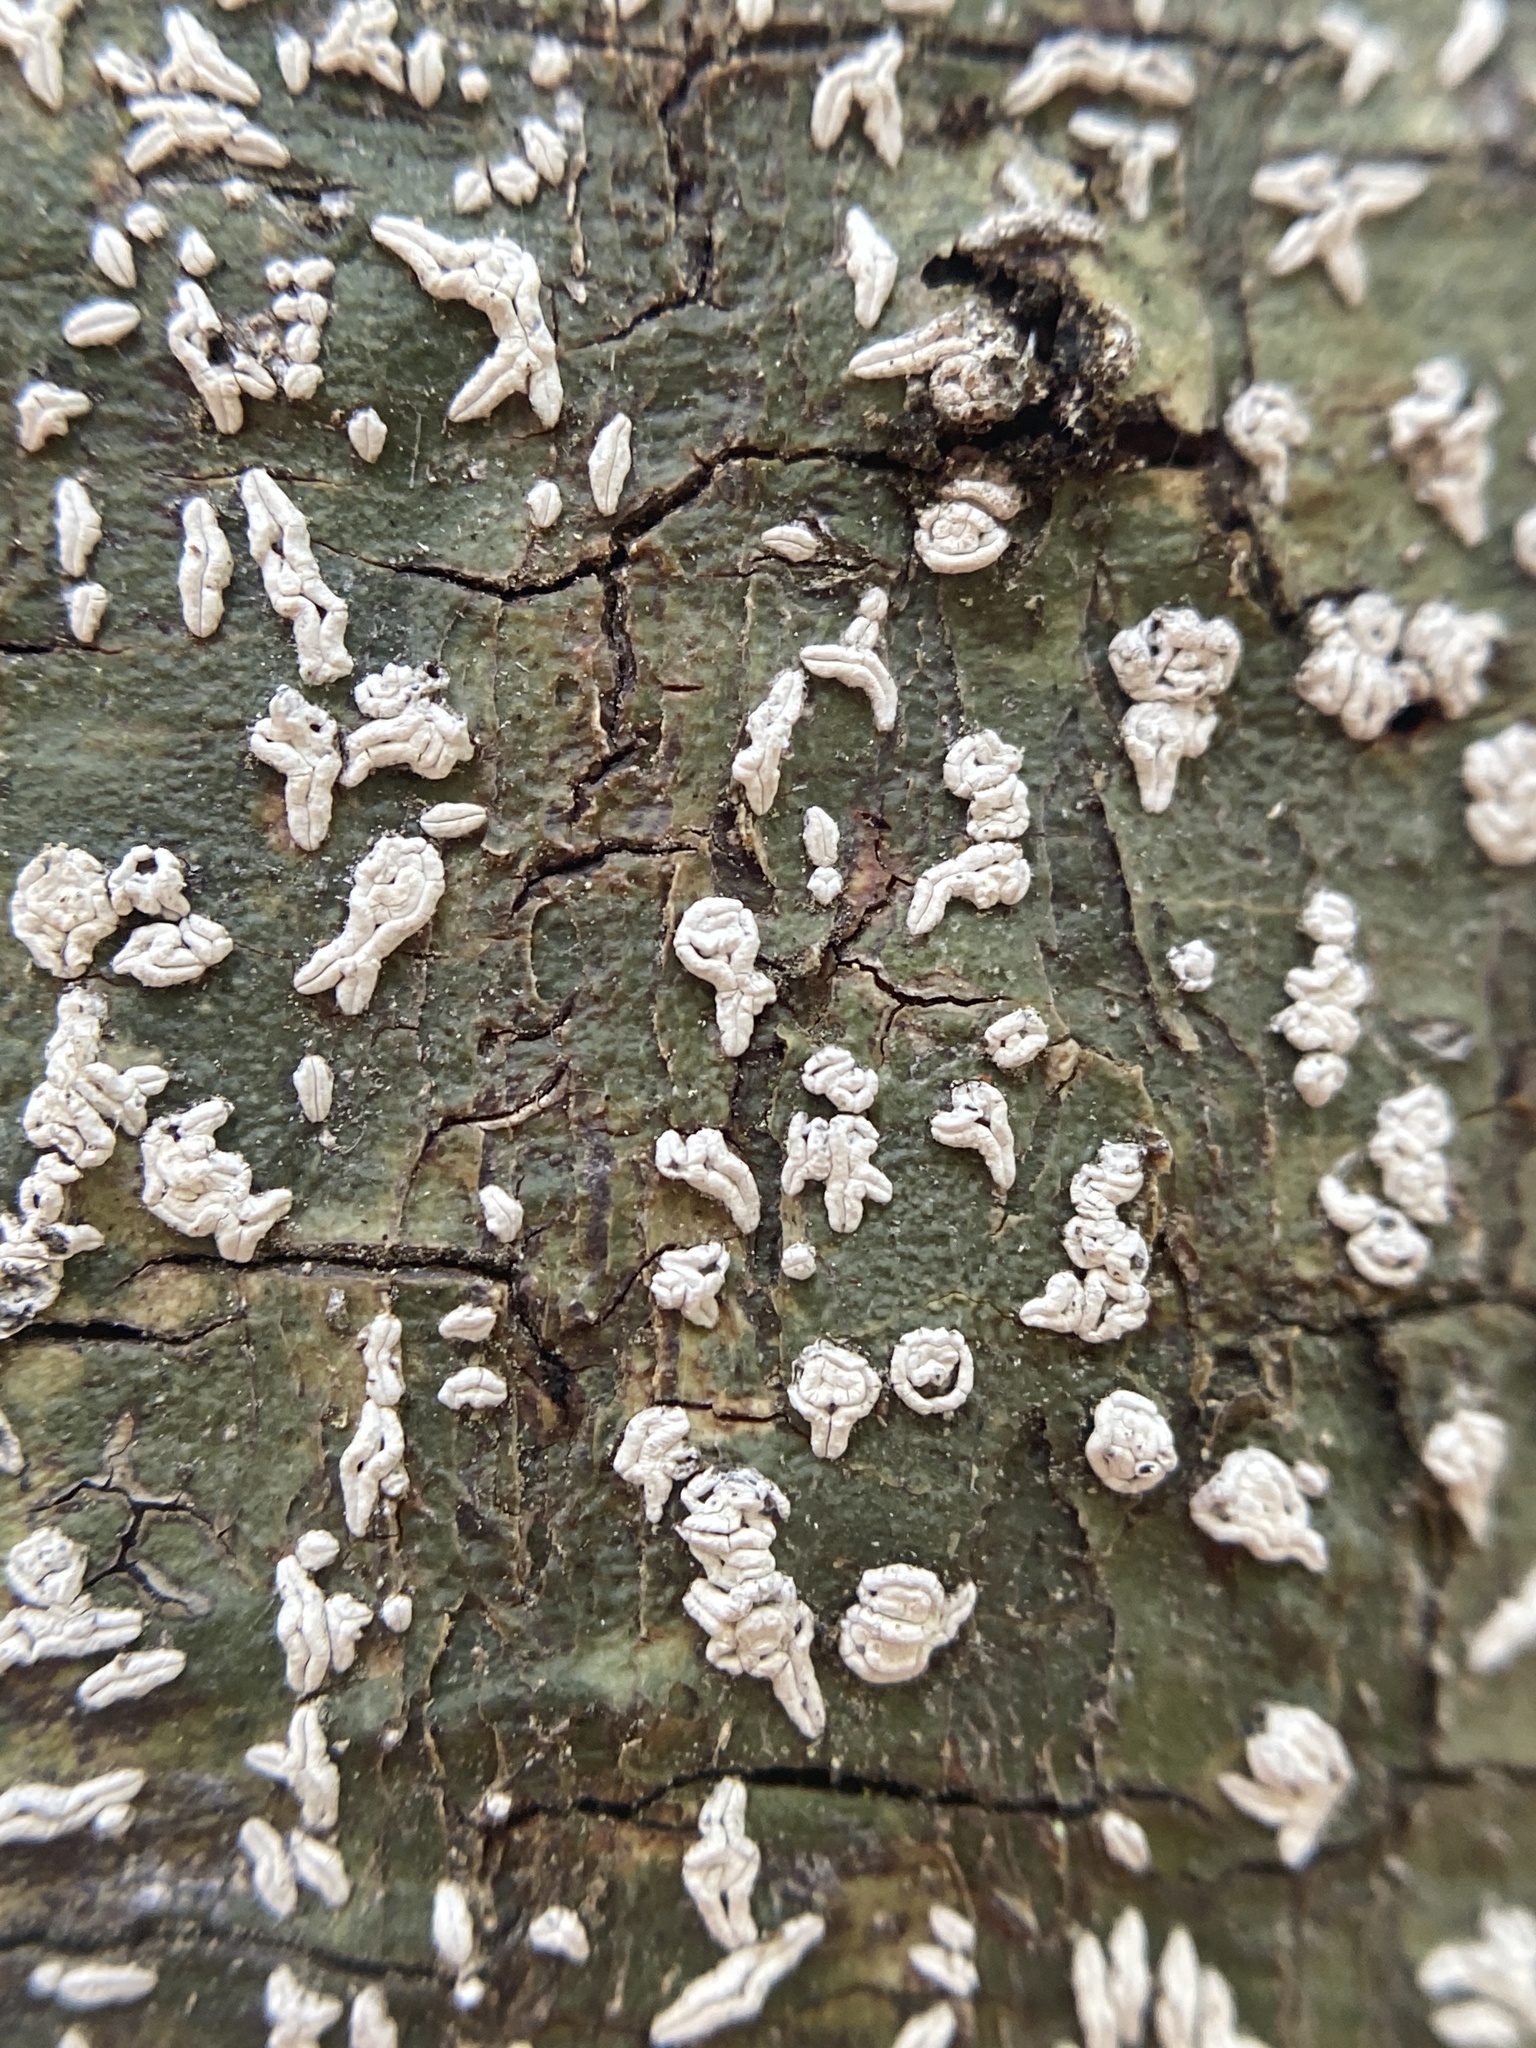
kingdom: Fungi
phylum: Ascomycota
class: Lecanoromycetes
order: Ostropales
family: Graphidaceae
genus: Dyplolabia
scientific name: Dyplolabia afzelii
